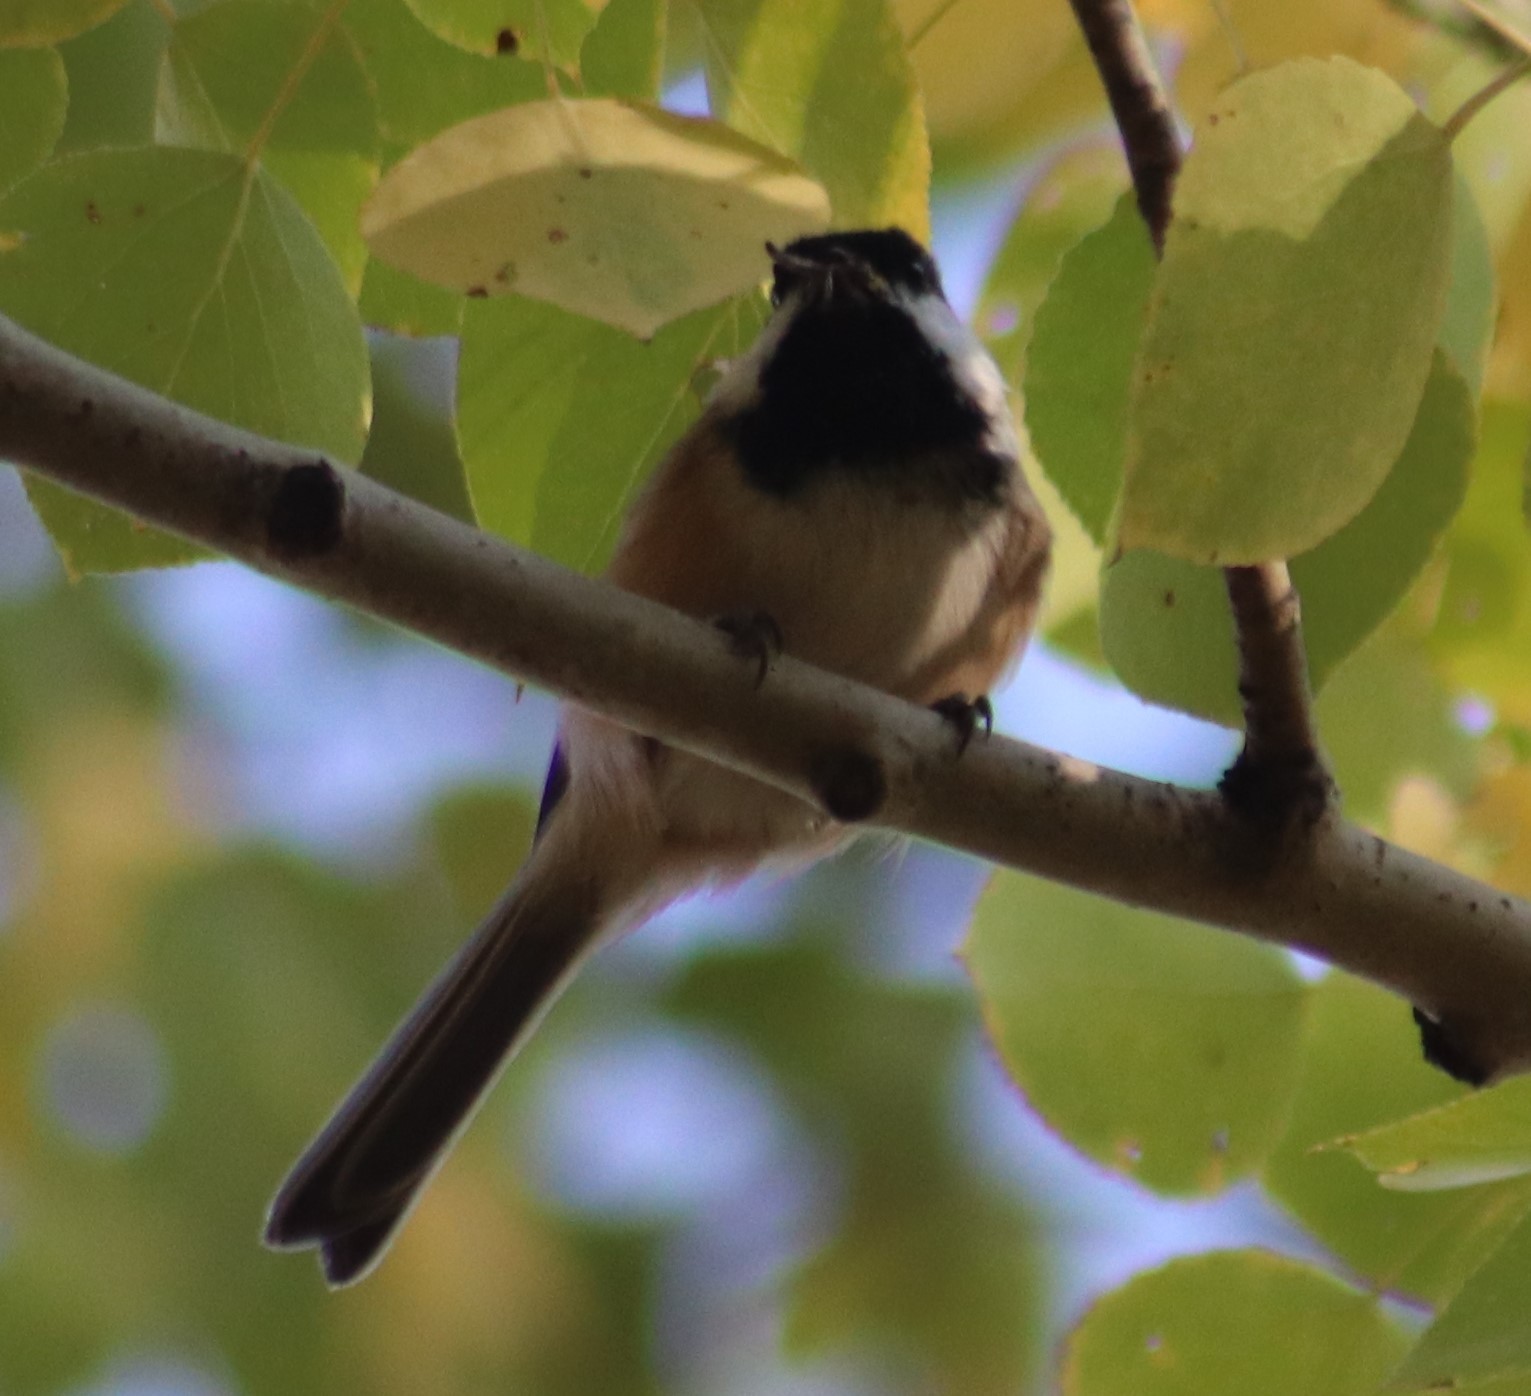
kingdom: Animalia
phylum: Chordata
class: Aves
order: Passeriformes
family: Paridae
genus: Poecile
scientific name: Poecile atricapillus
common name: Black-capped chickadee
